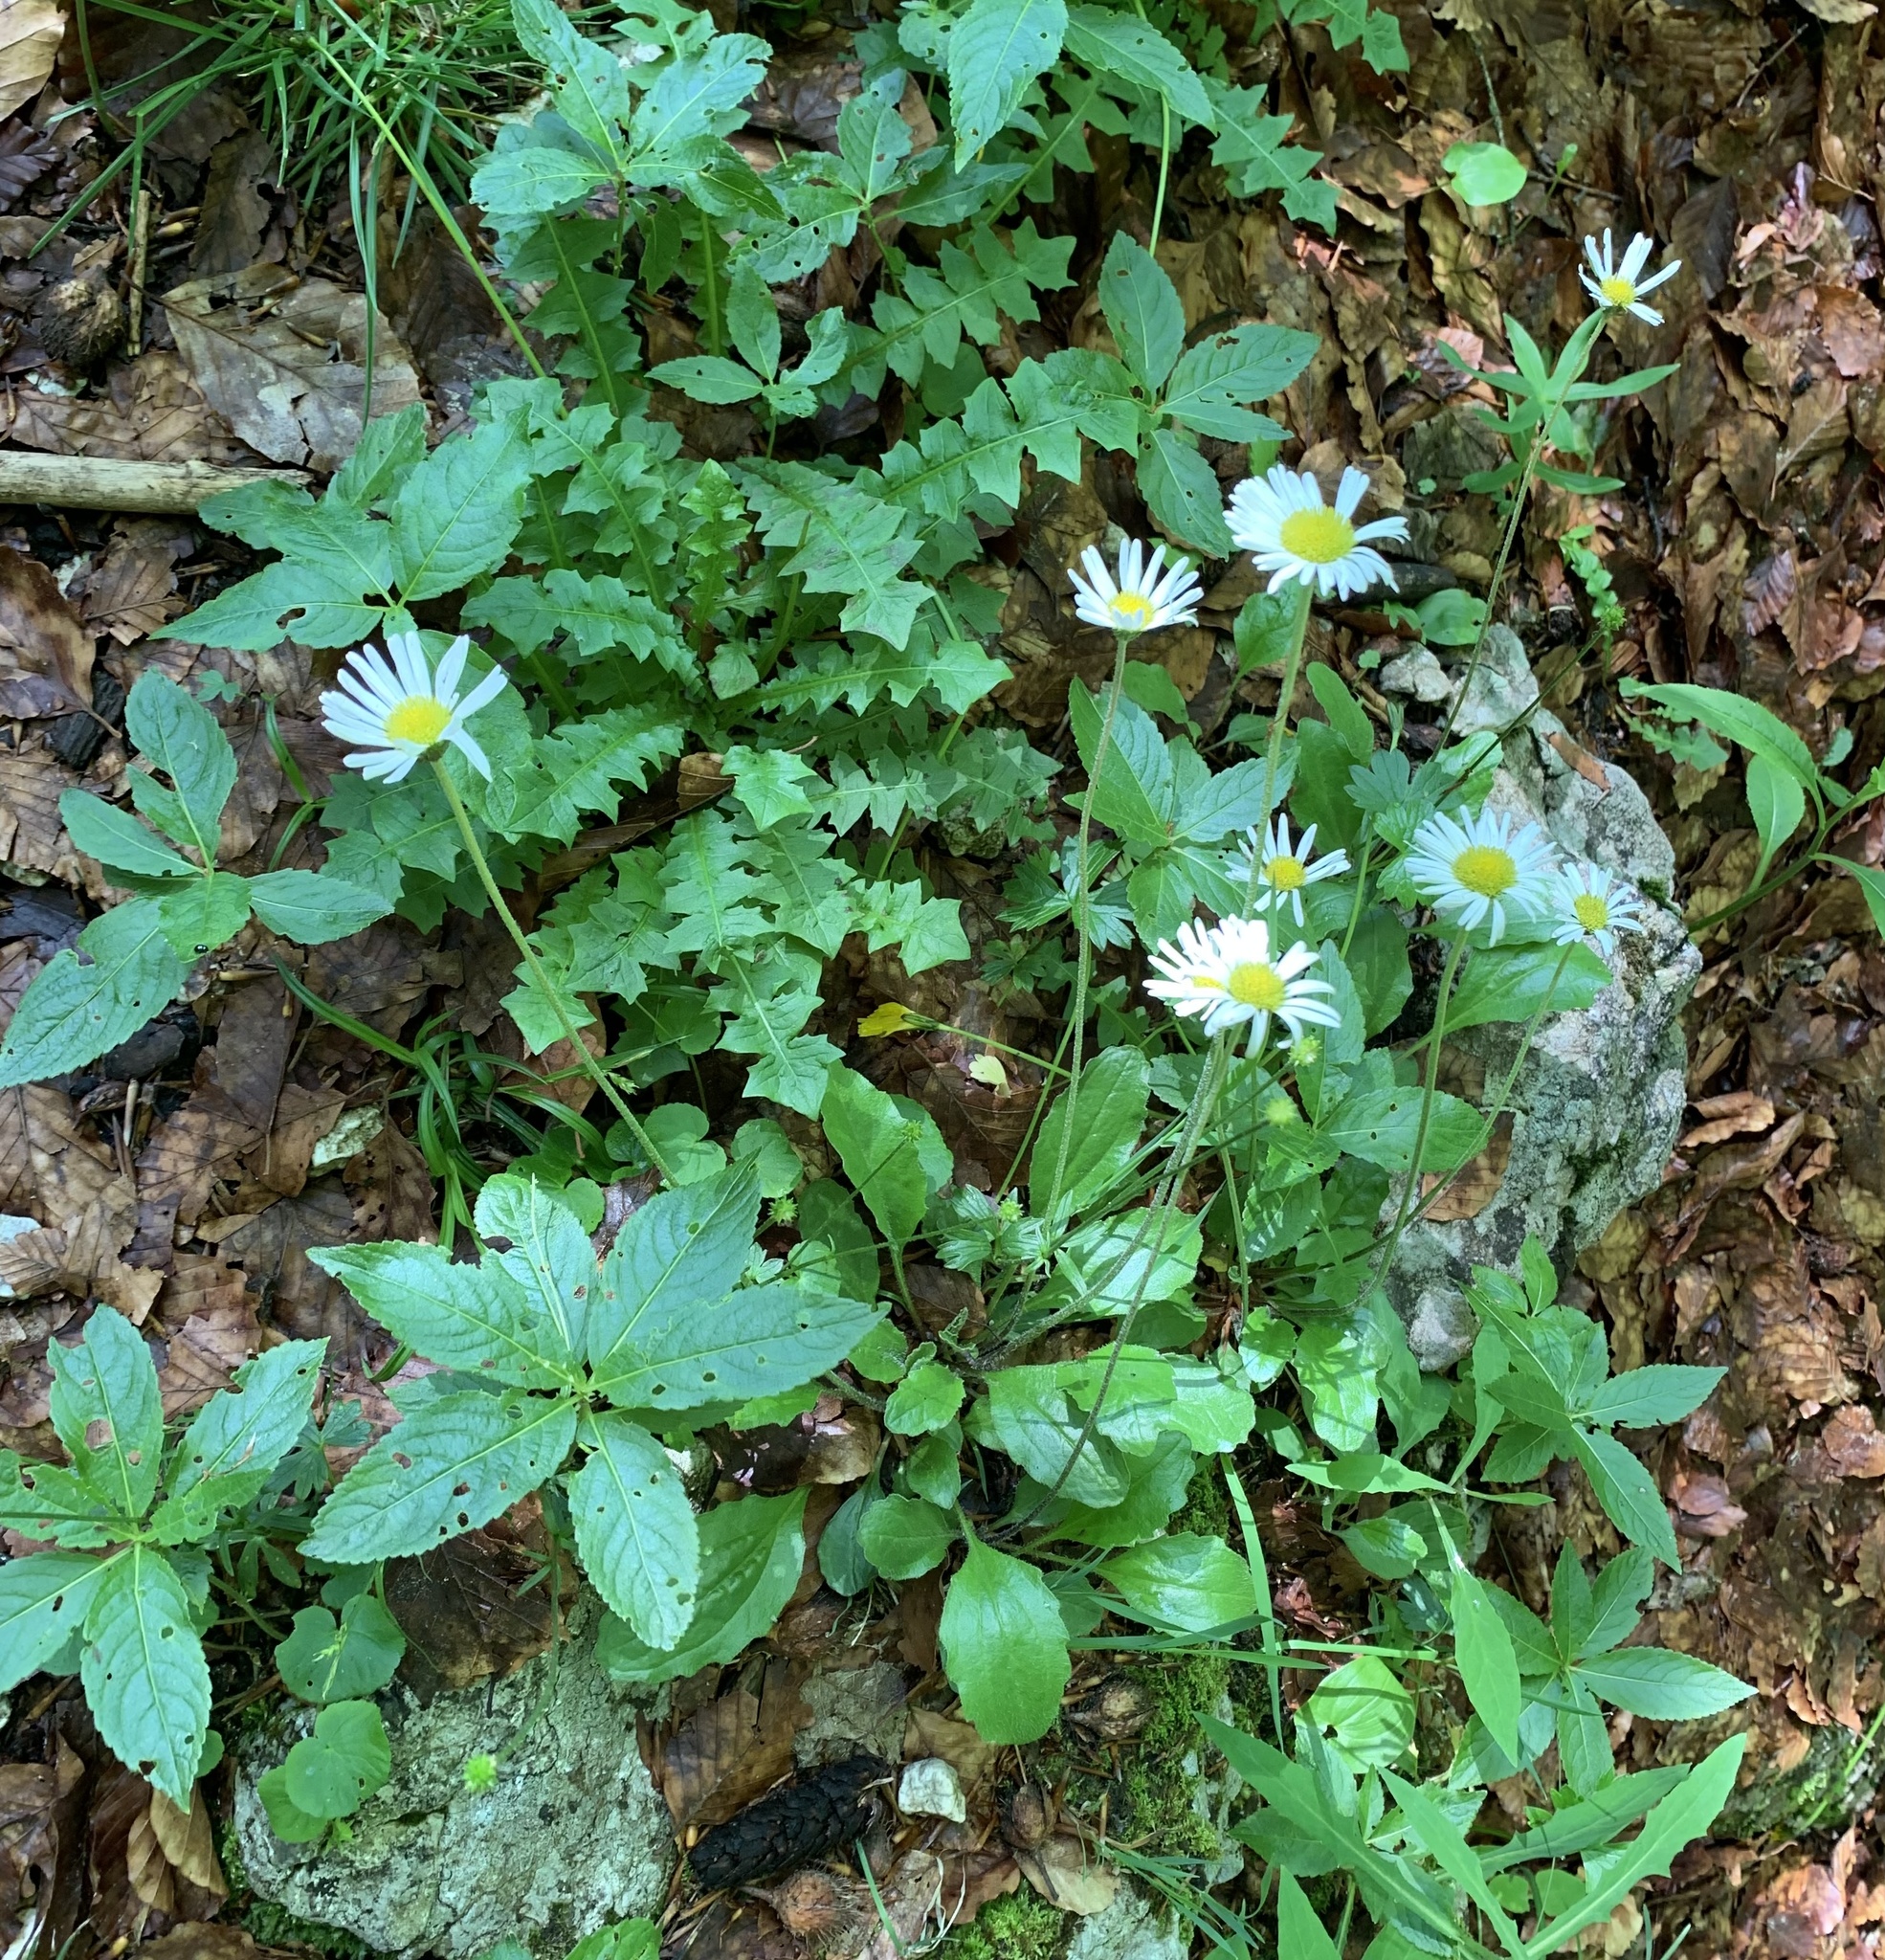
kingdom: Plantae
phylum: Tracheophyta
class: Magnoliopsida
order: Asterales
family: Asteraceae
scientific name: Asteraceae
